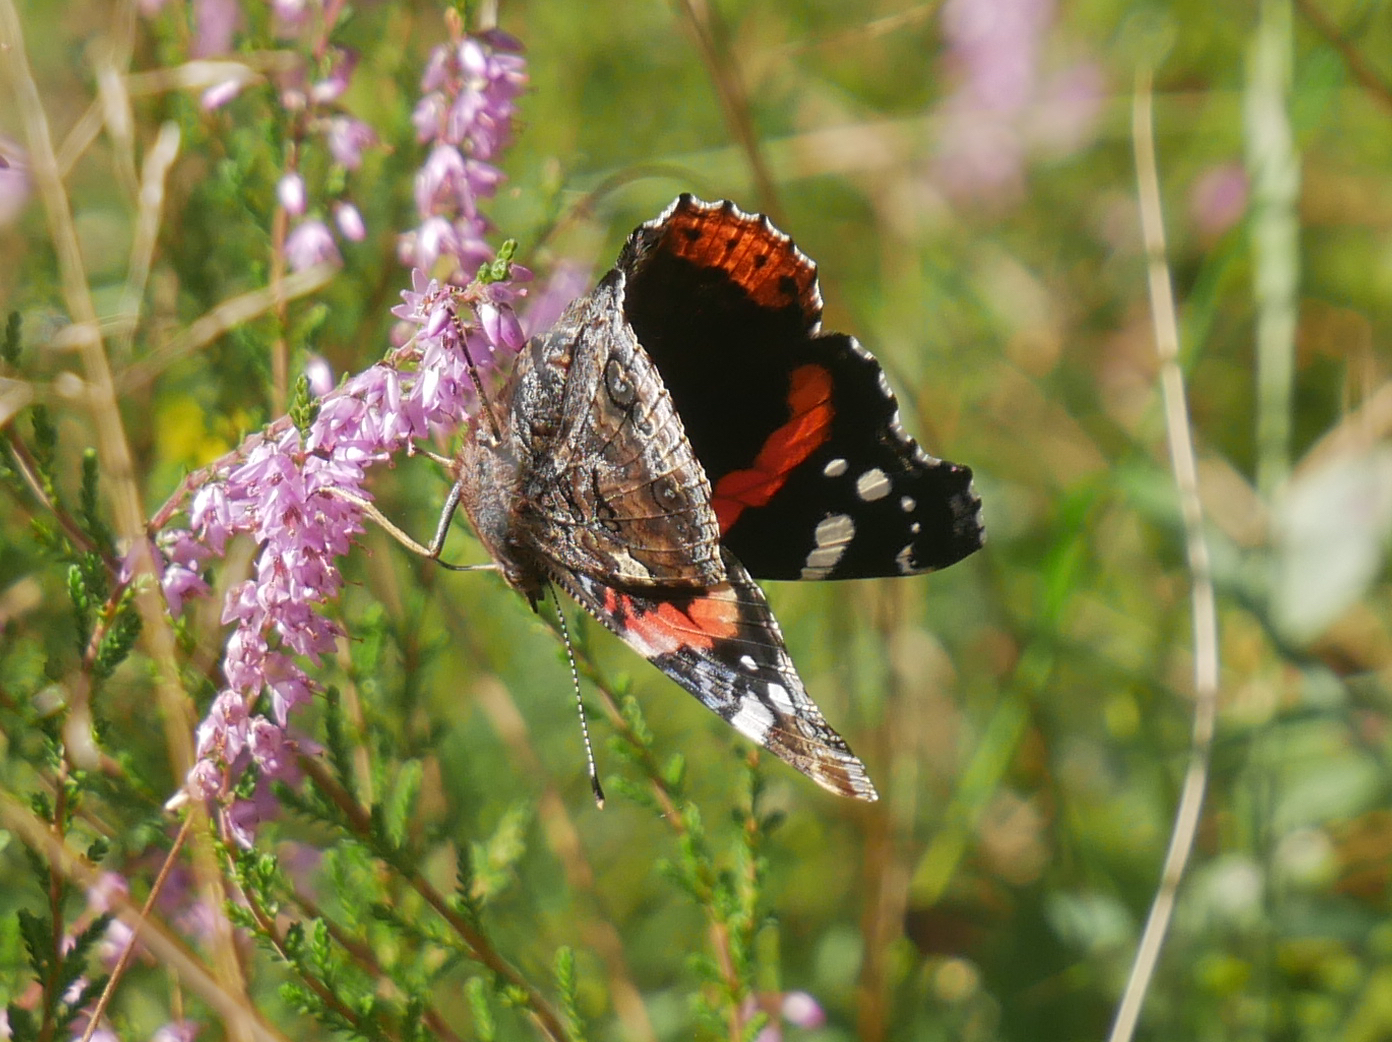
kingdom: Animalia
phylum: Arthropoda
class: Insecta
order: Lepidoptera
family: Nymphalidae
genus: Vanessa
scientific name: Vanessa atalanta
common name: Red admiral
